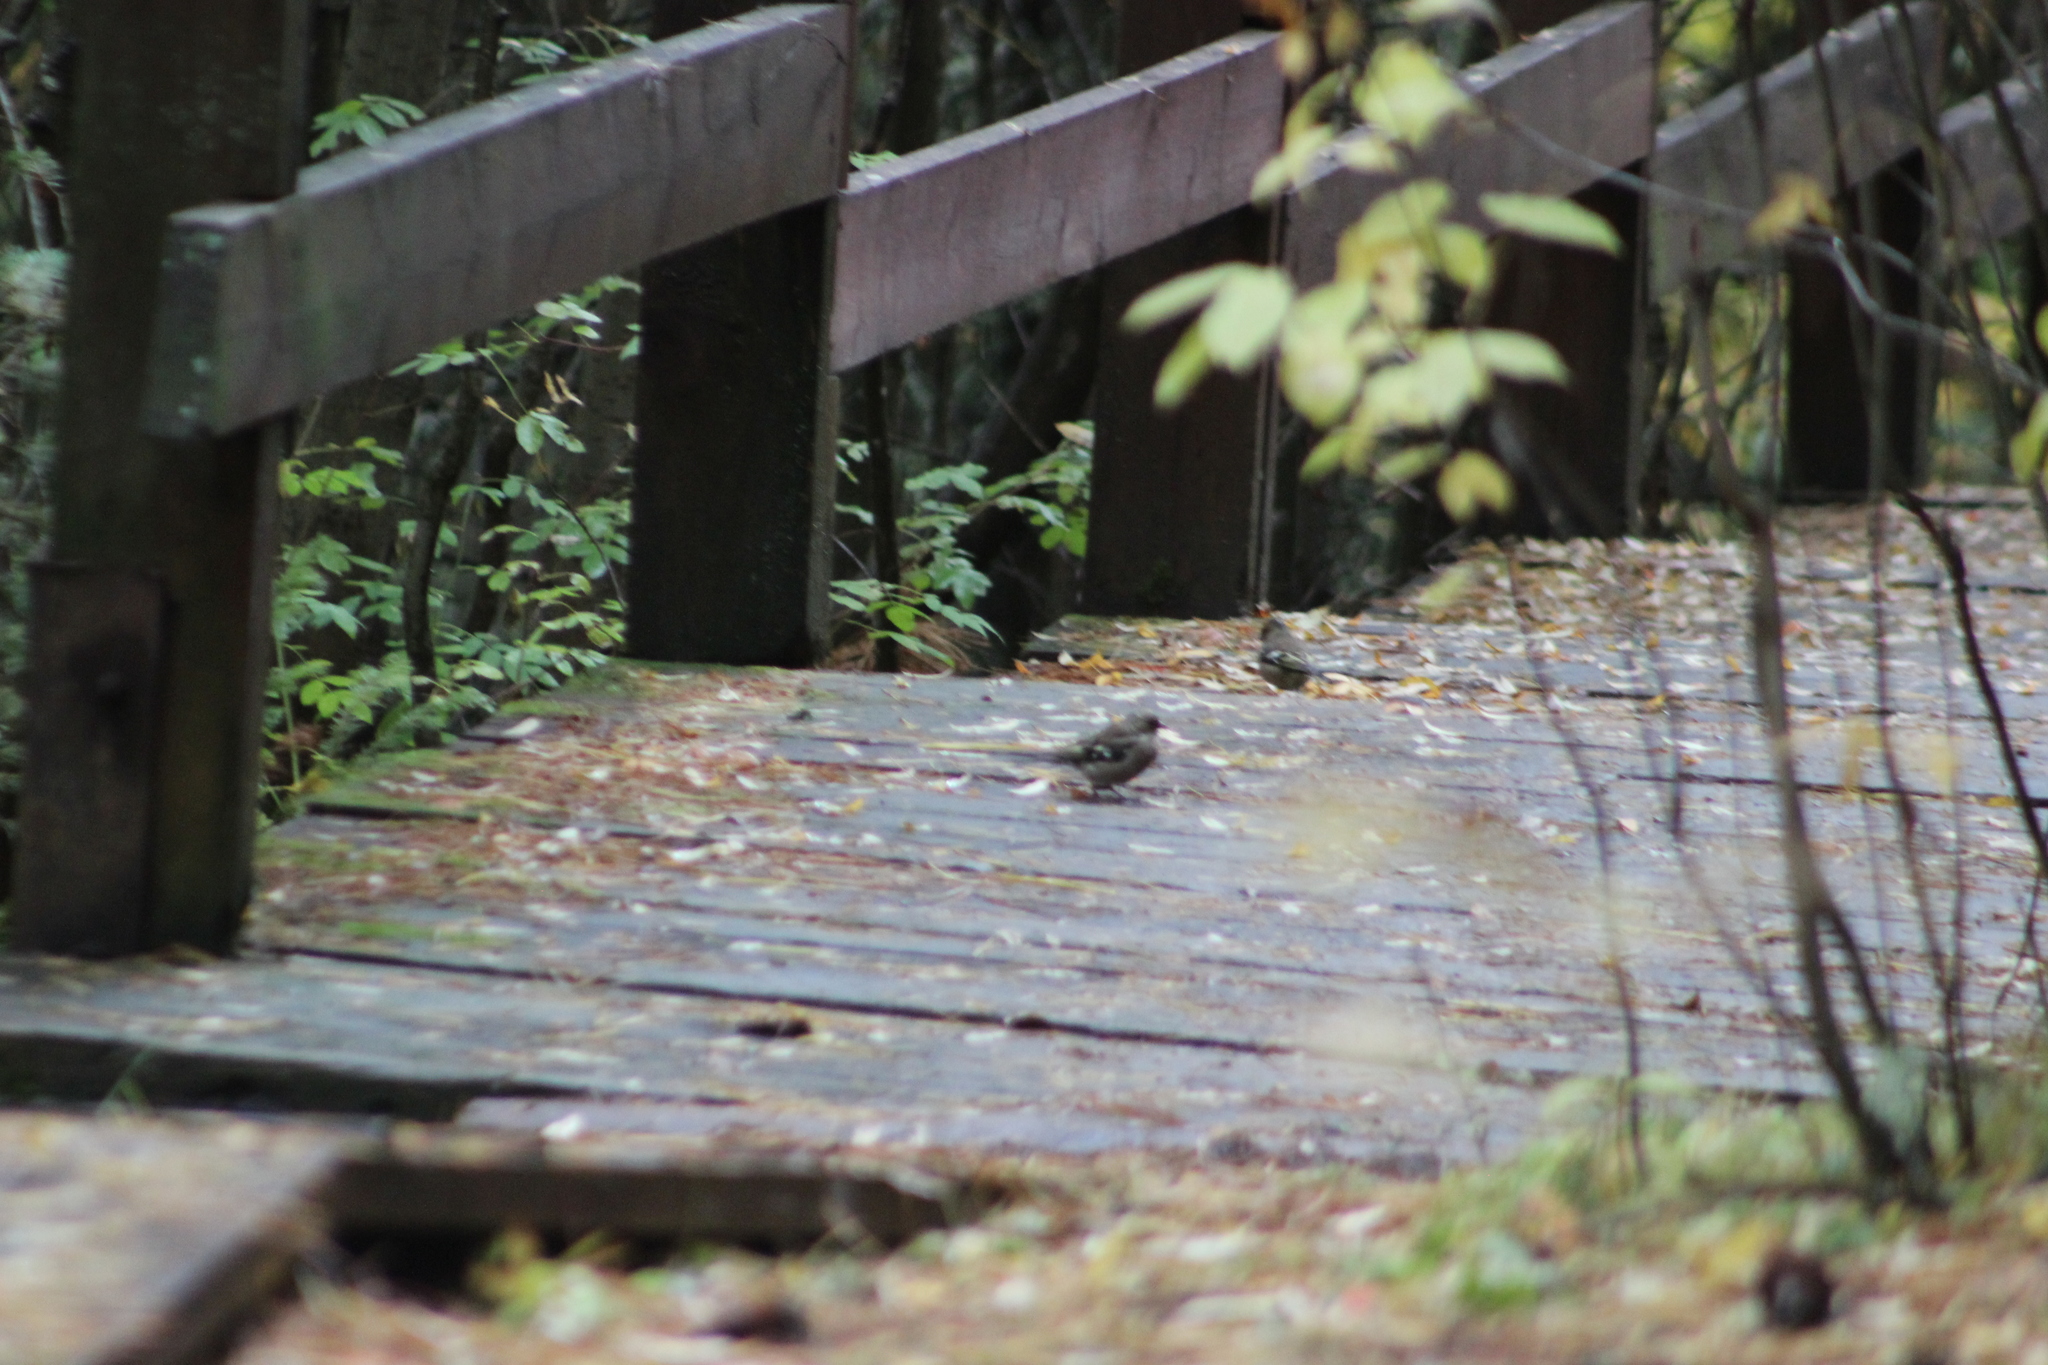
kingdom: Animalia
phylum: Chordata
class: Aves
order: Passeriformes
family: Fringillidae
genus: Fringilla
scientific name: Fringilla coelebs
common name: Common chaffinch
